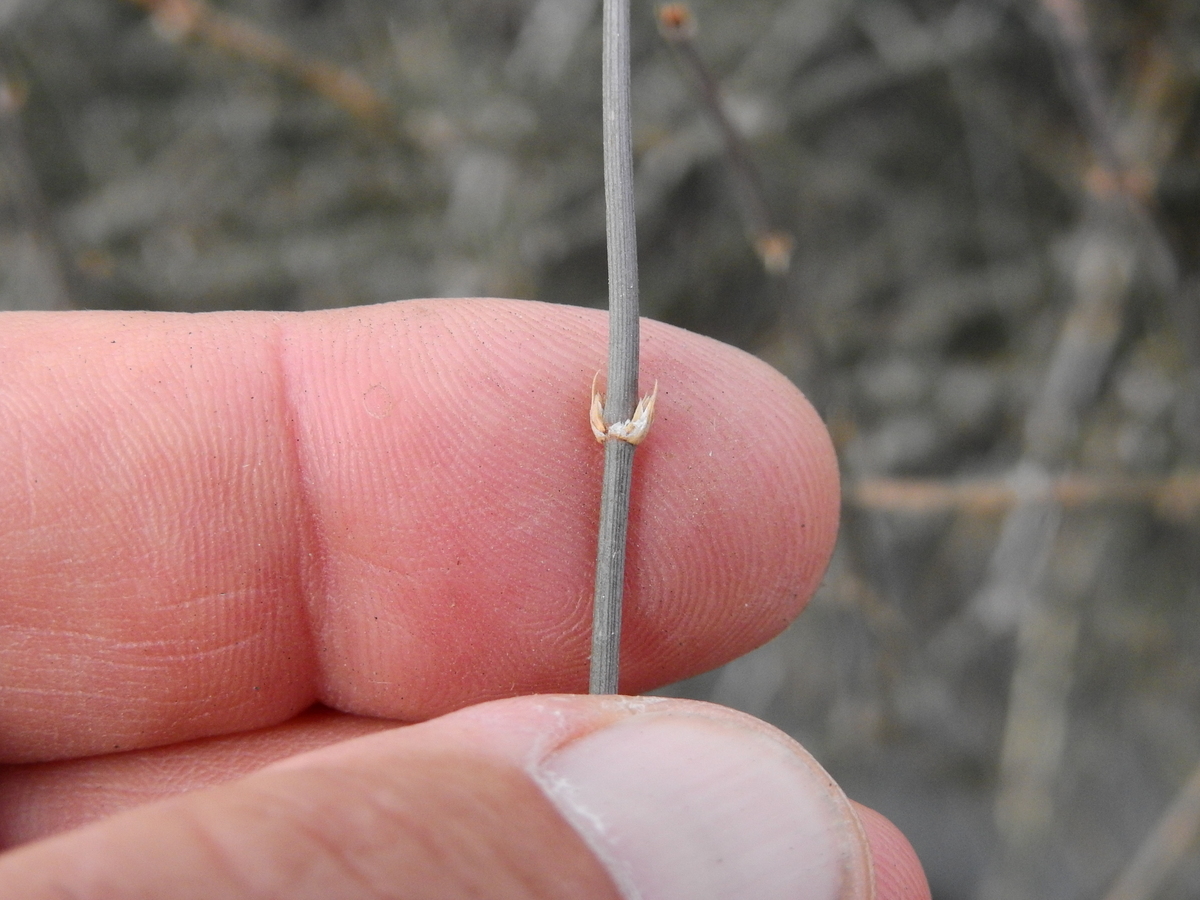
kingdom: Plantae
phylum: Tracheophyta
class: Gnetopsida
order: Ephedrales
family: Ephedraceae
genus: Ephedra
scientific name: Ephedra triandra
